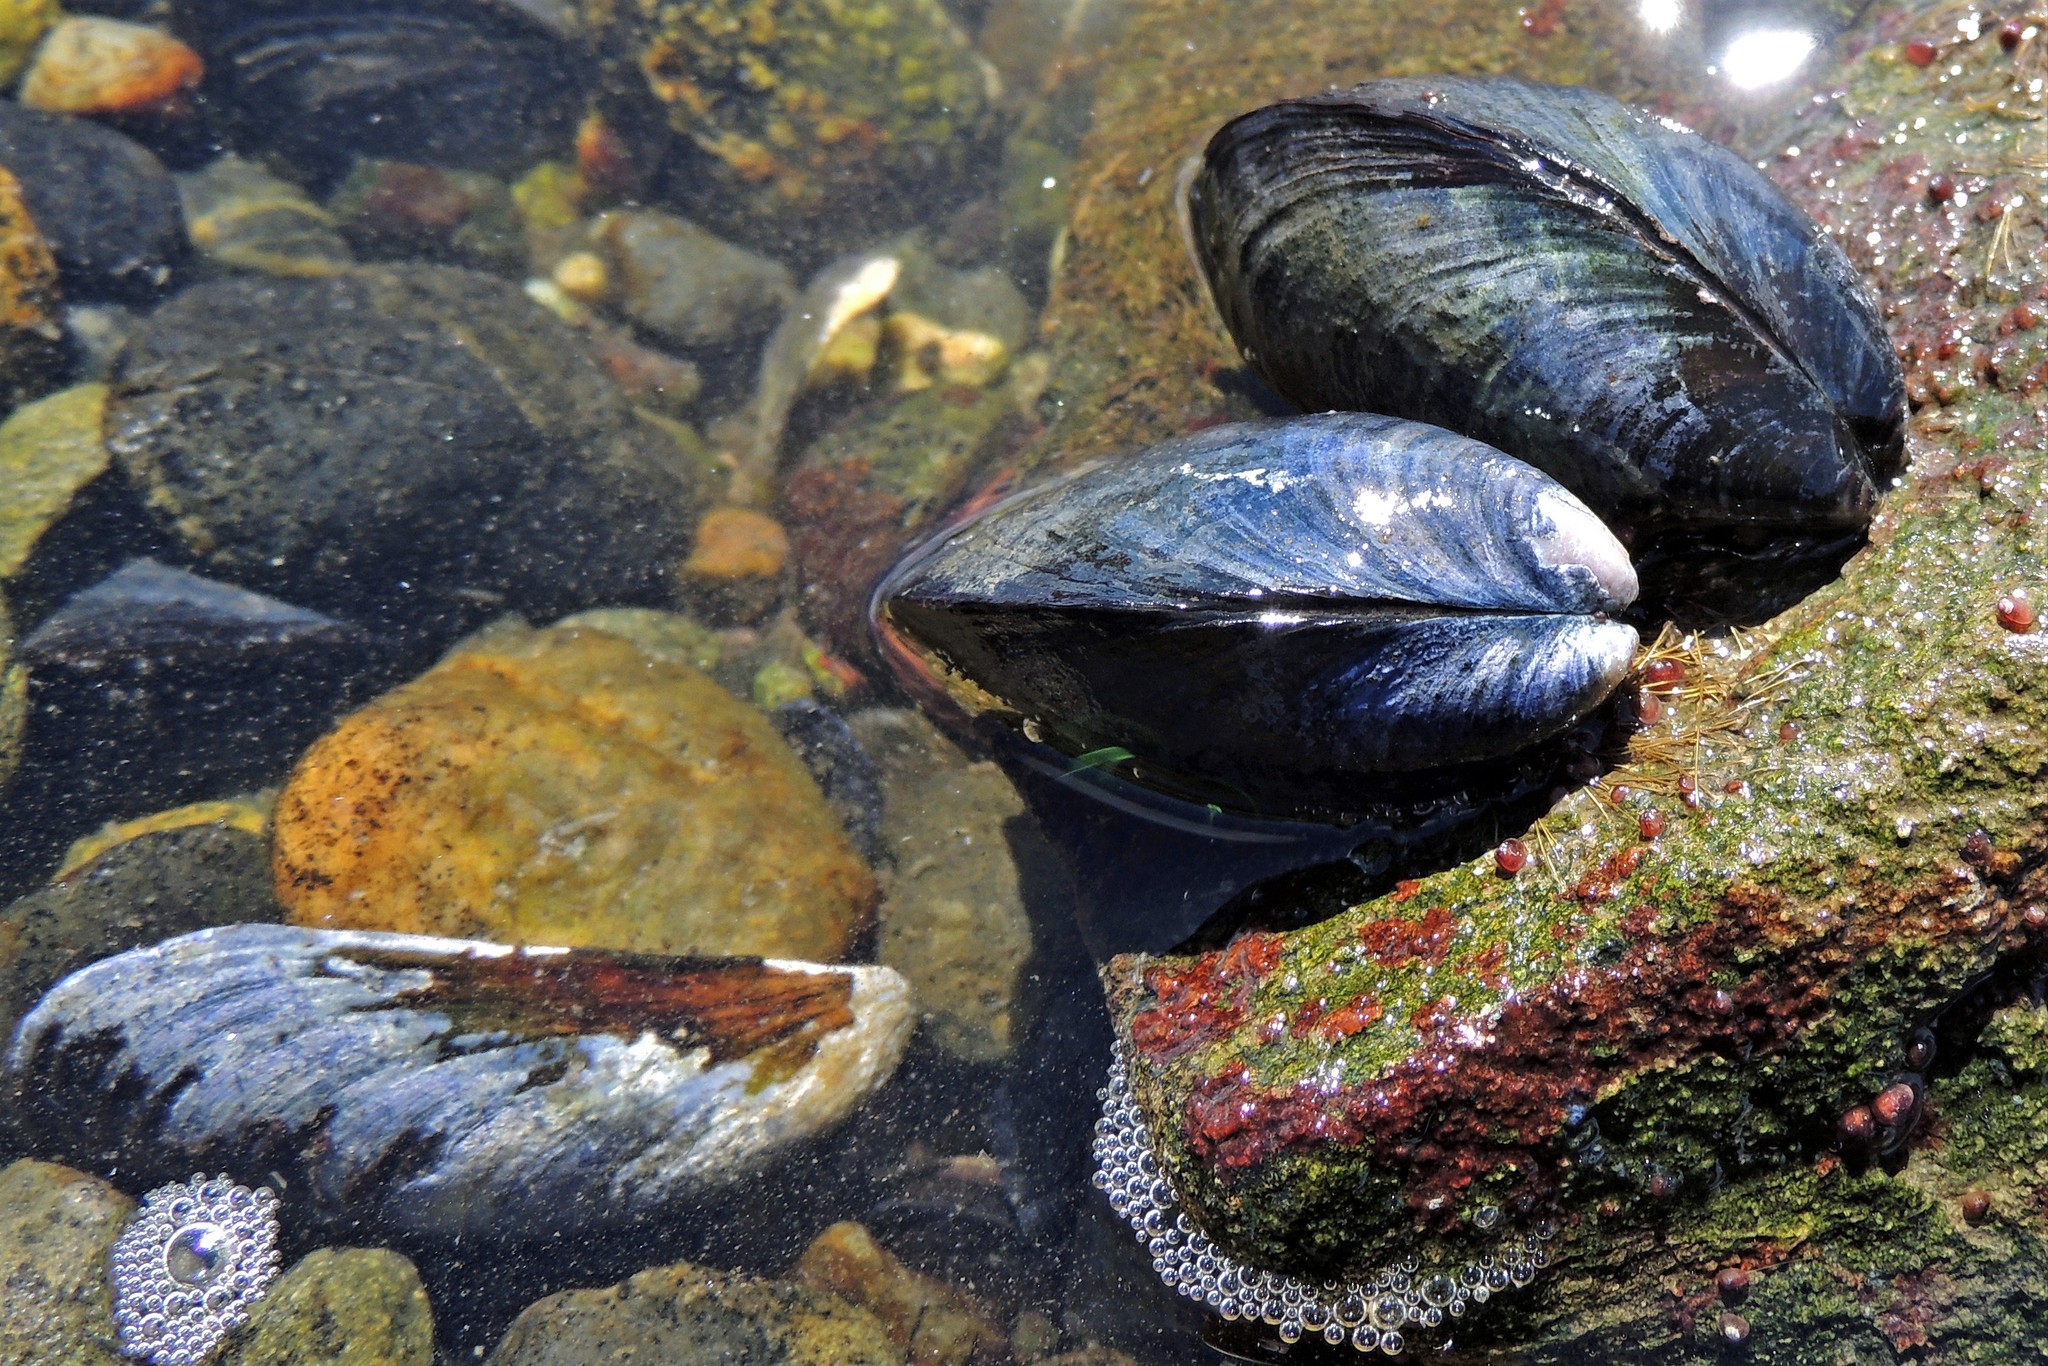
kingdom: Animalia
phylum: Mollusca
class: Bivalvia
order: Mytilida
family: Mytilidae
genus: Mytilus
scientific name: Mytilus chilensis
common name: Chilean mussel
